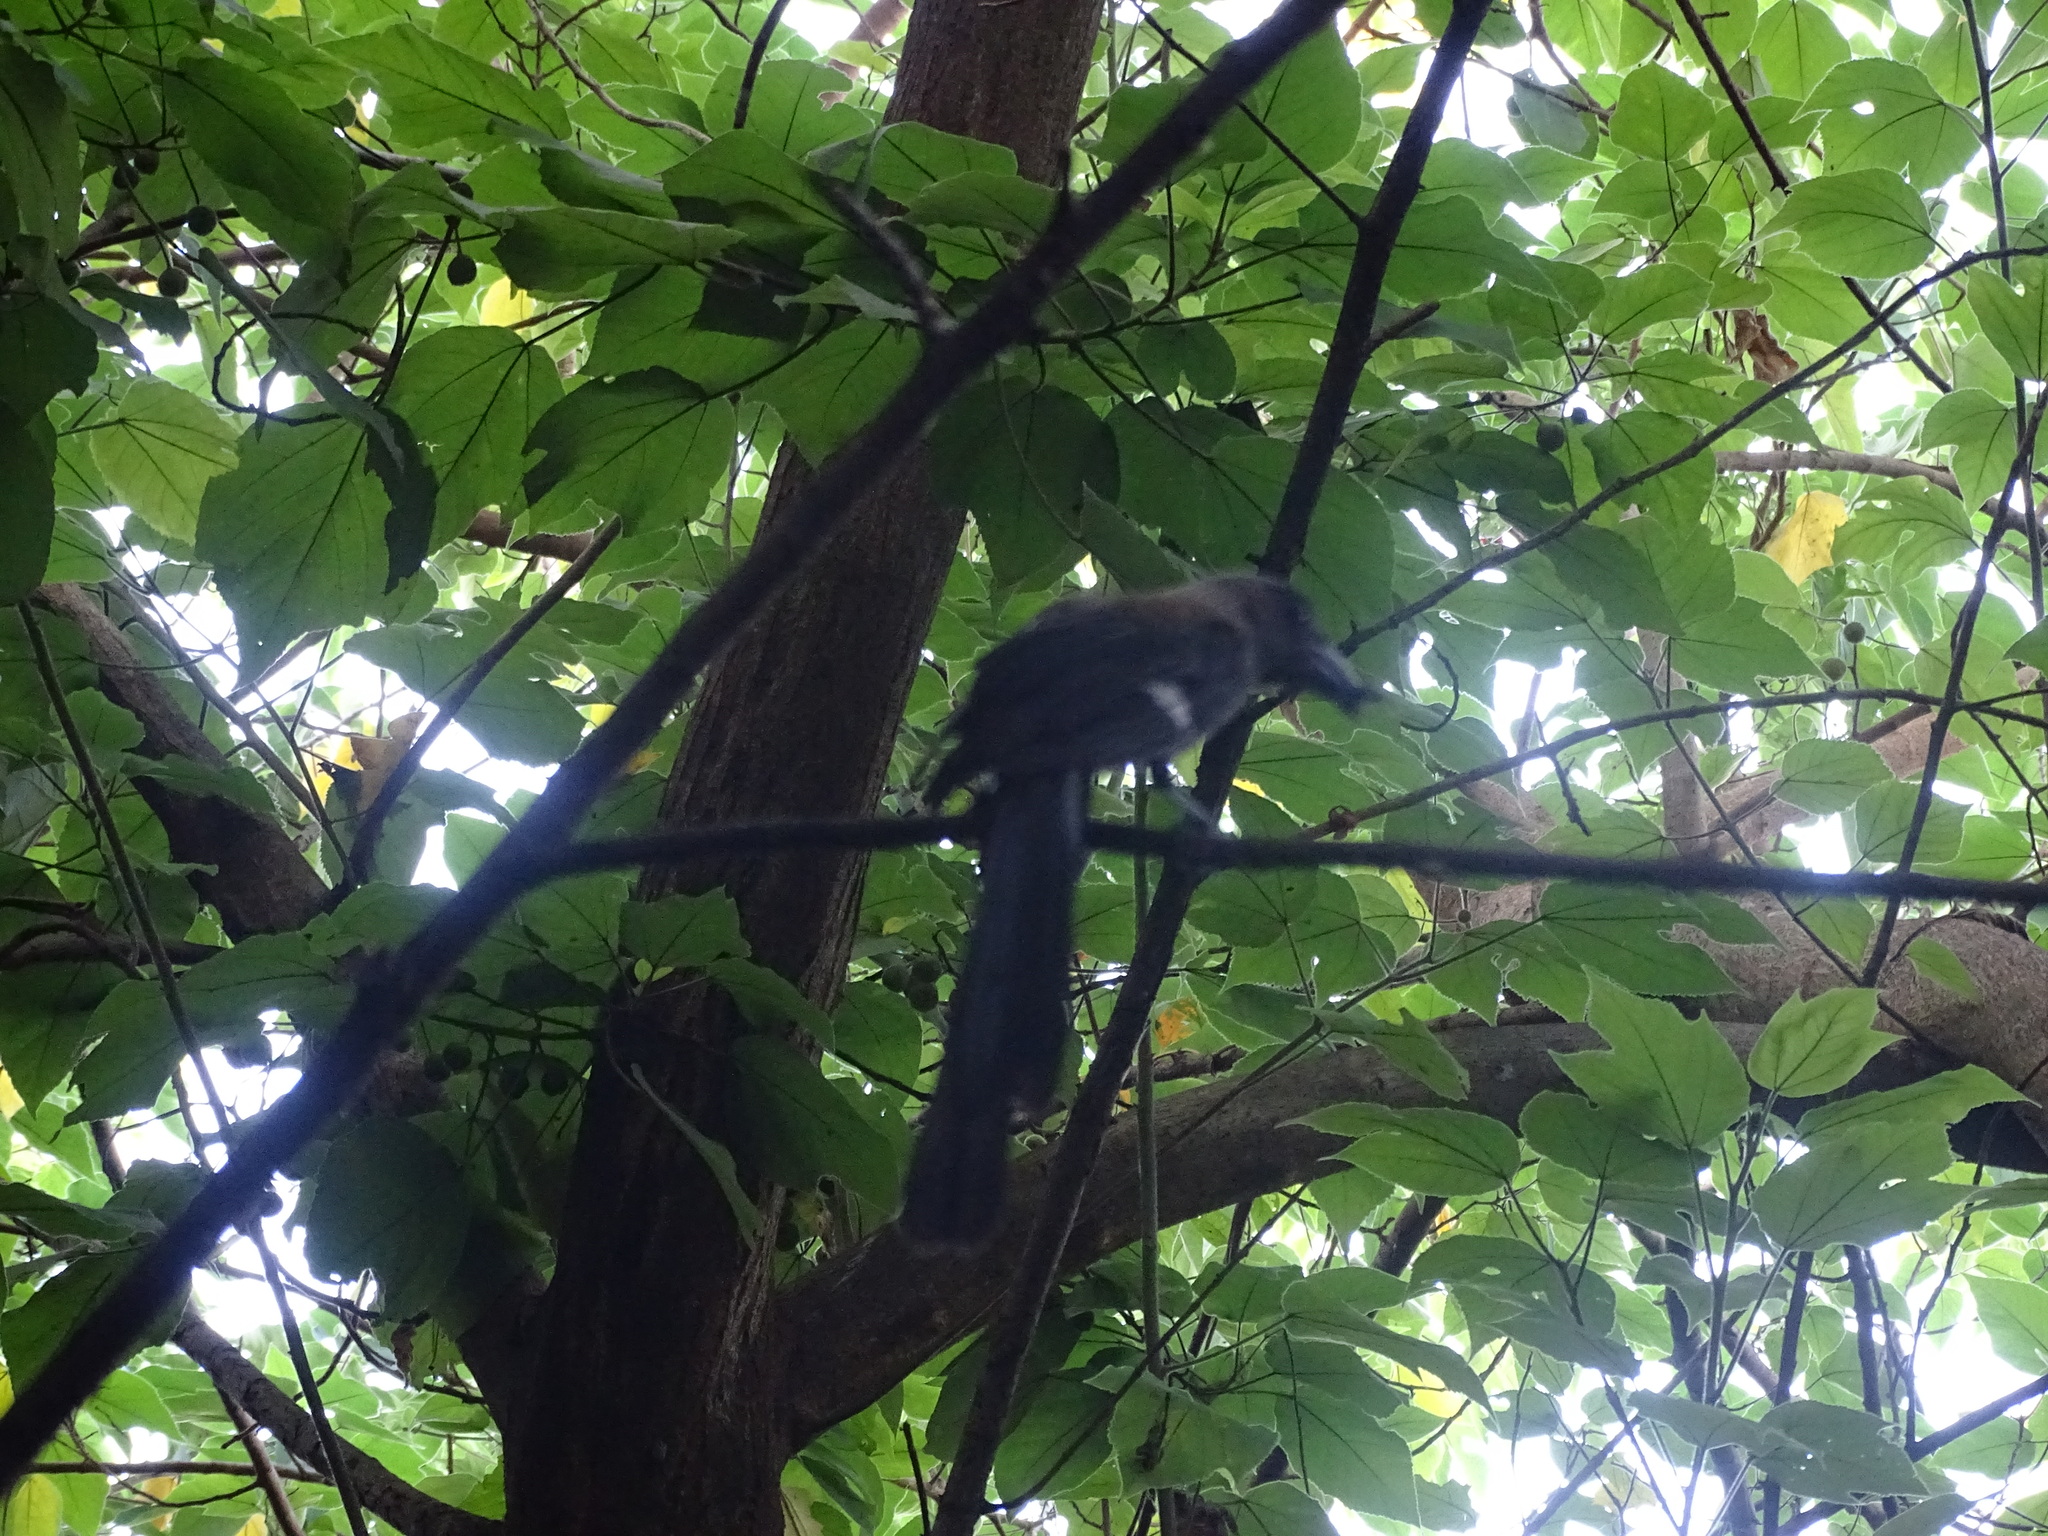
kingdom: Animalia
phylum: Chordata
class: Aves
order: Passeriformes
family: Corvidae
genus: Dendrocitta
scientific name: Dendrocitta formosae
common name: Grey treepie
